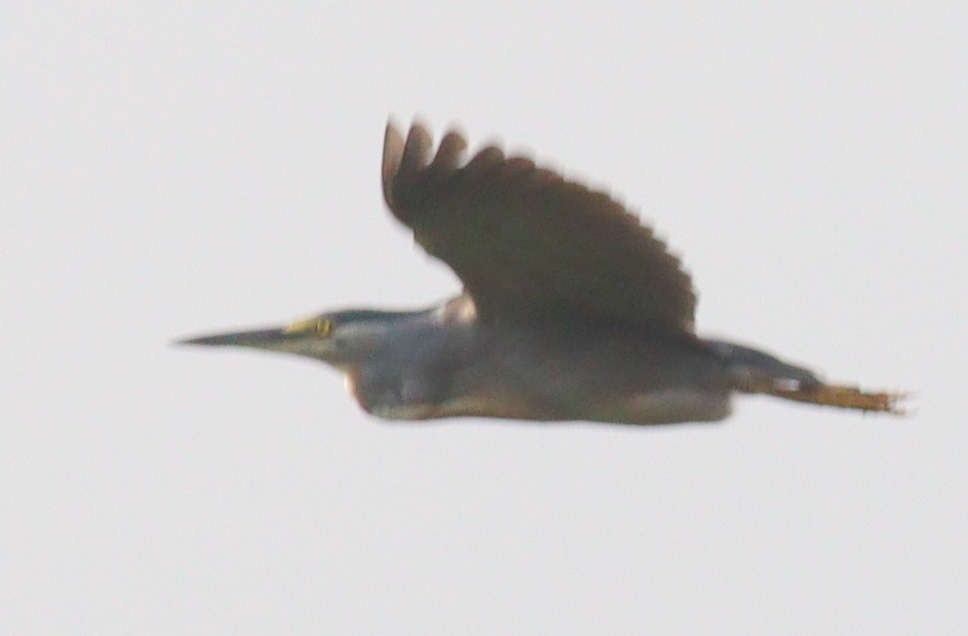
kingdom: Animalia
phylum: Chordata
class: Aves
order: Pelecaniformes
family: Ardeidae
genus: Butorides
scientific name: Butorides striata
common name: Striated heron
